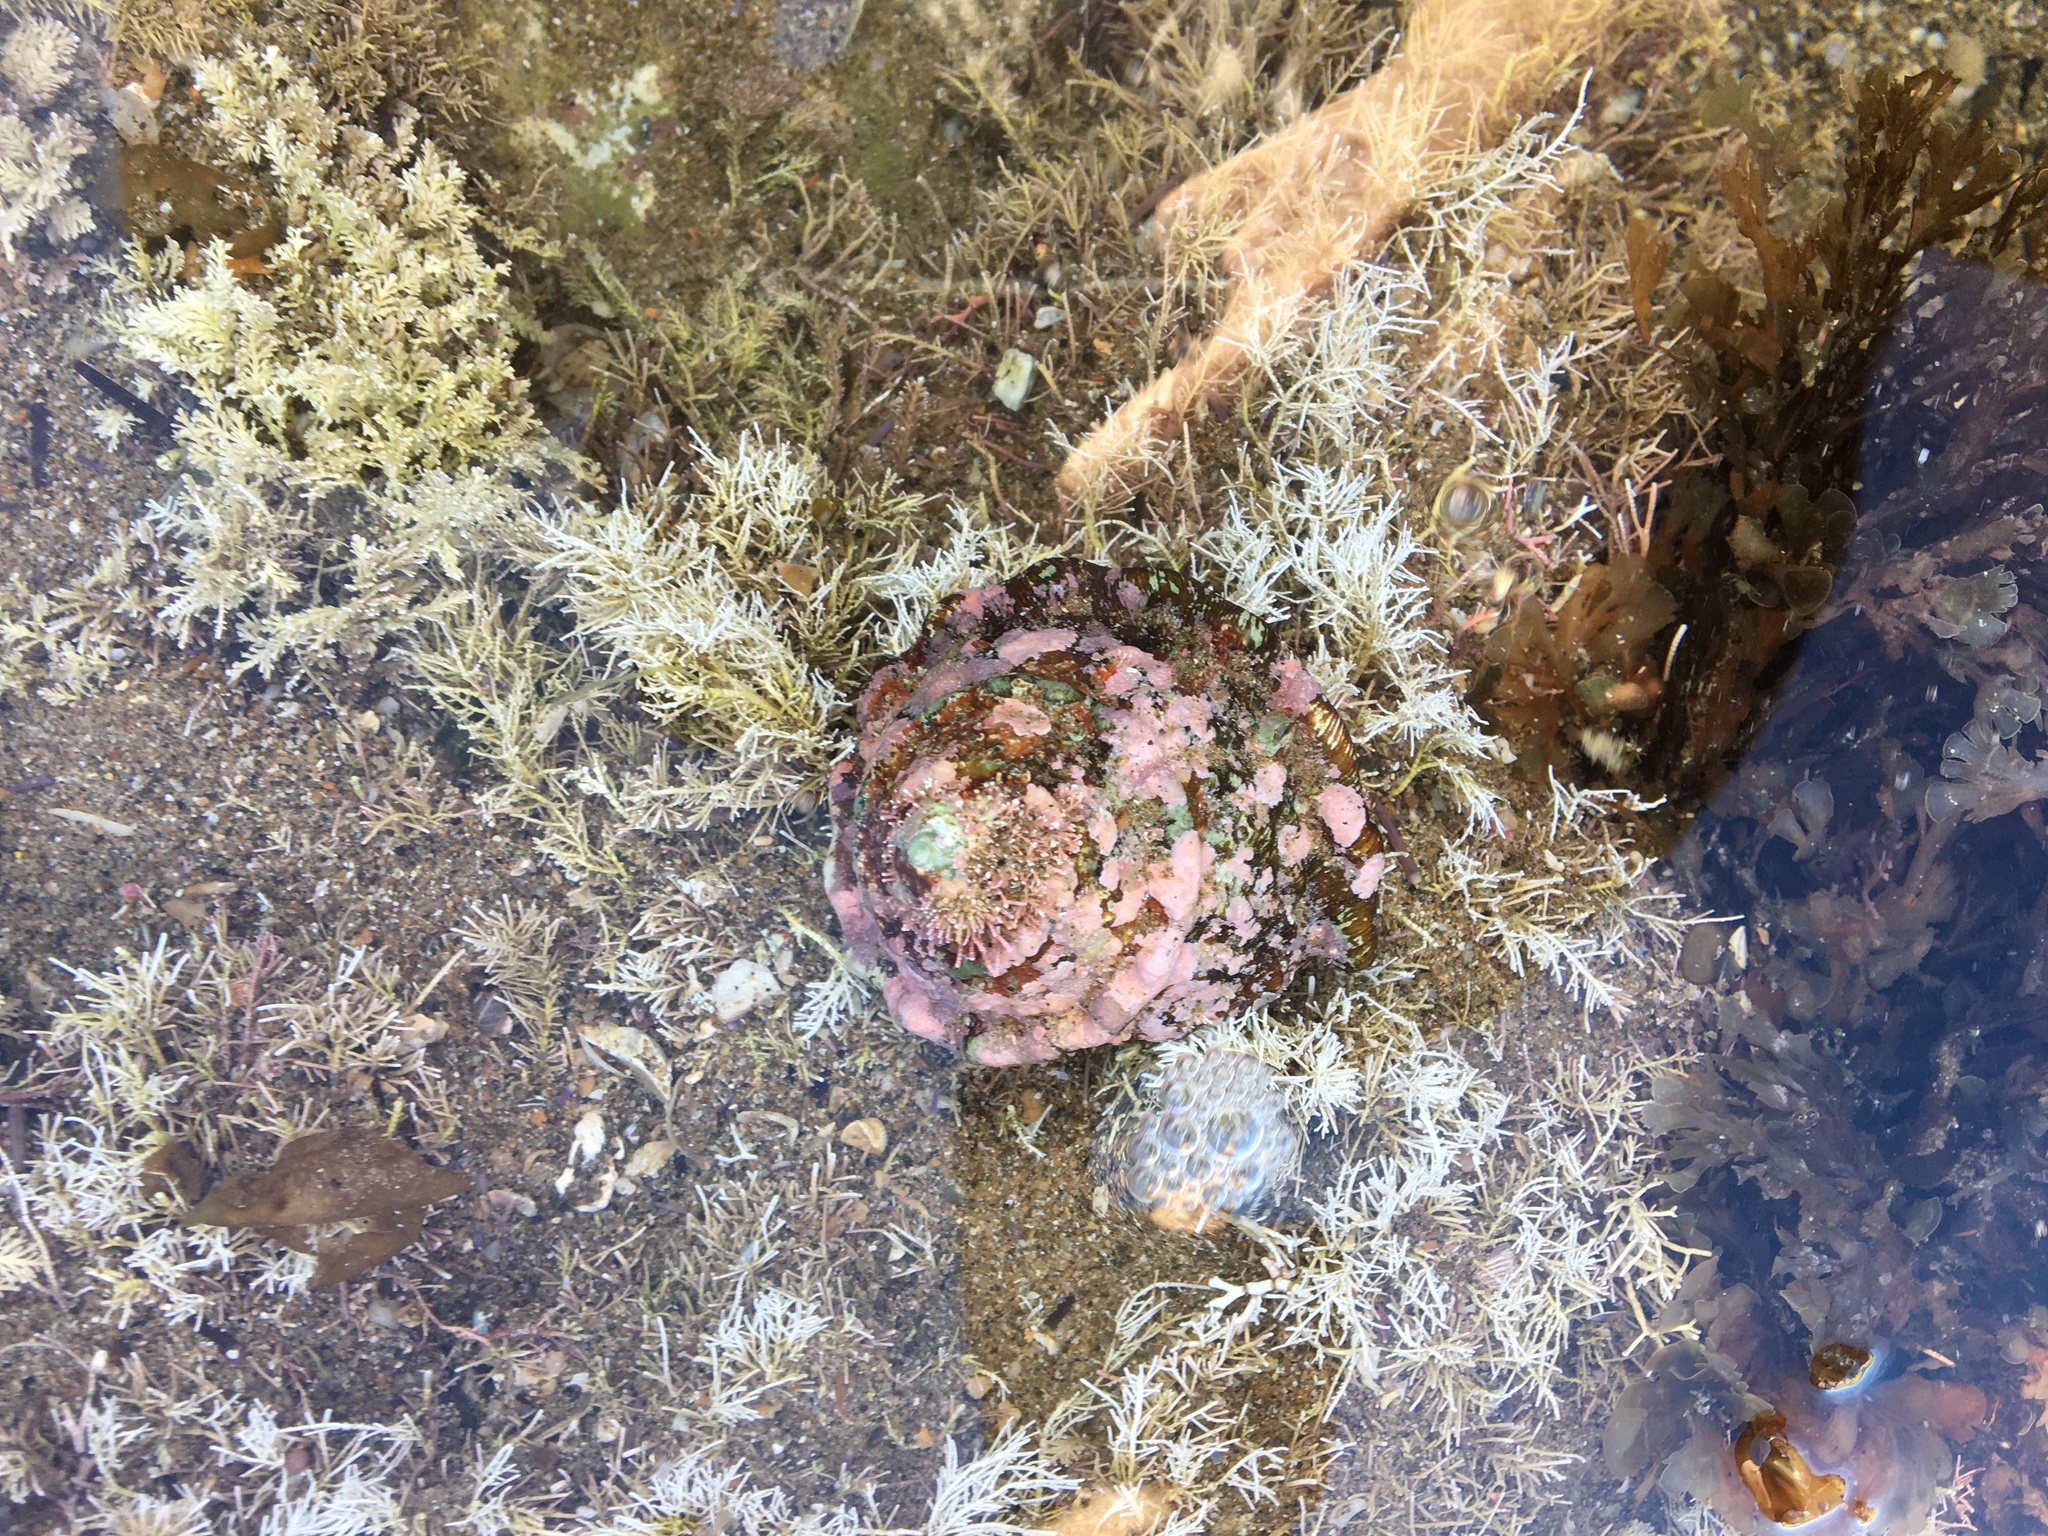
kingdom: Animalia
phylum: Mollusca
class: Gastropoda
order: Trochida
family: Turbinidae
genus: Megastraea
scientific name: Megastraea undosa
